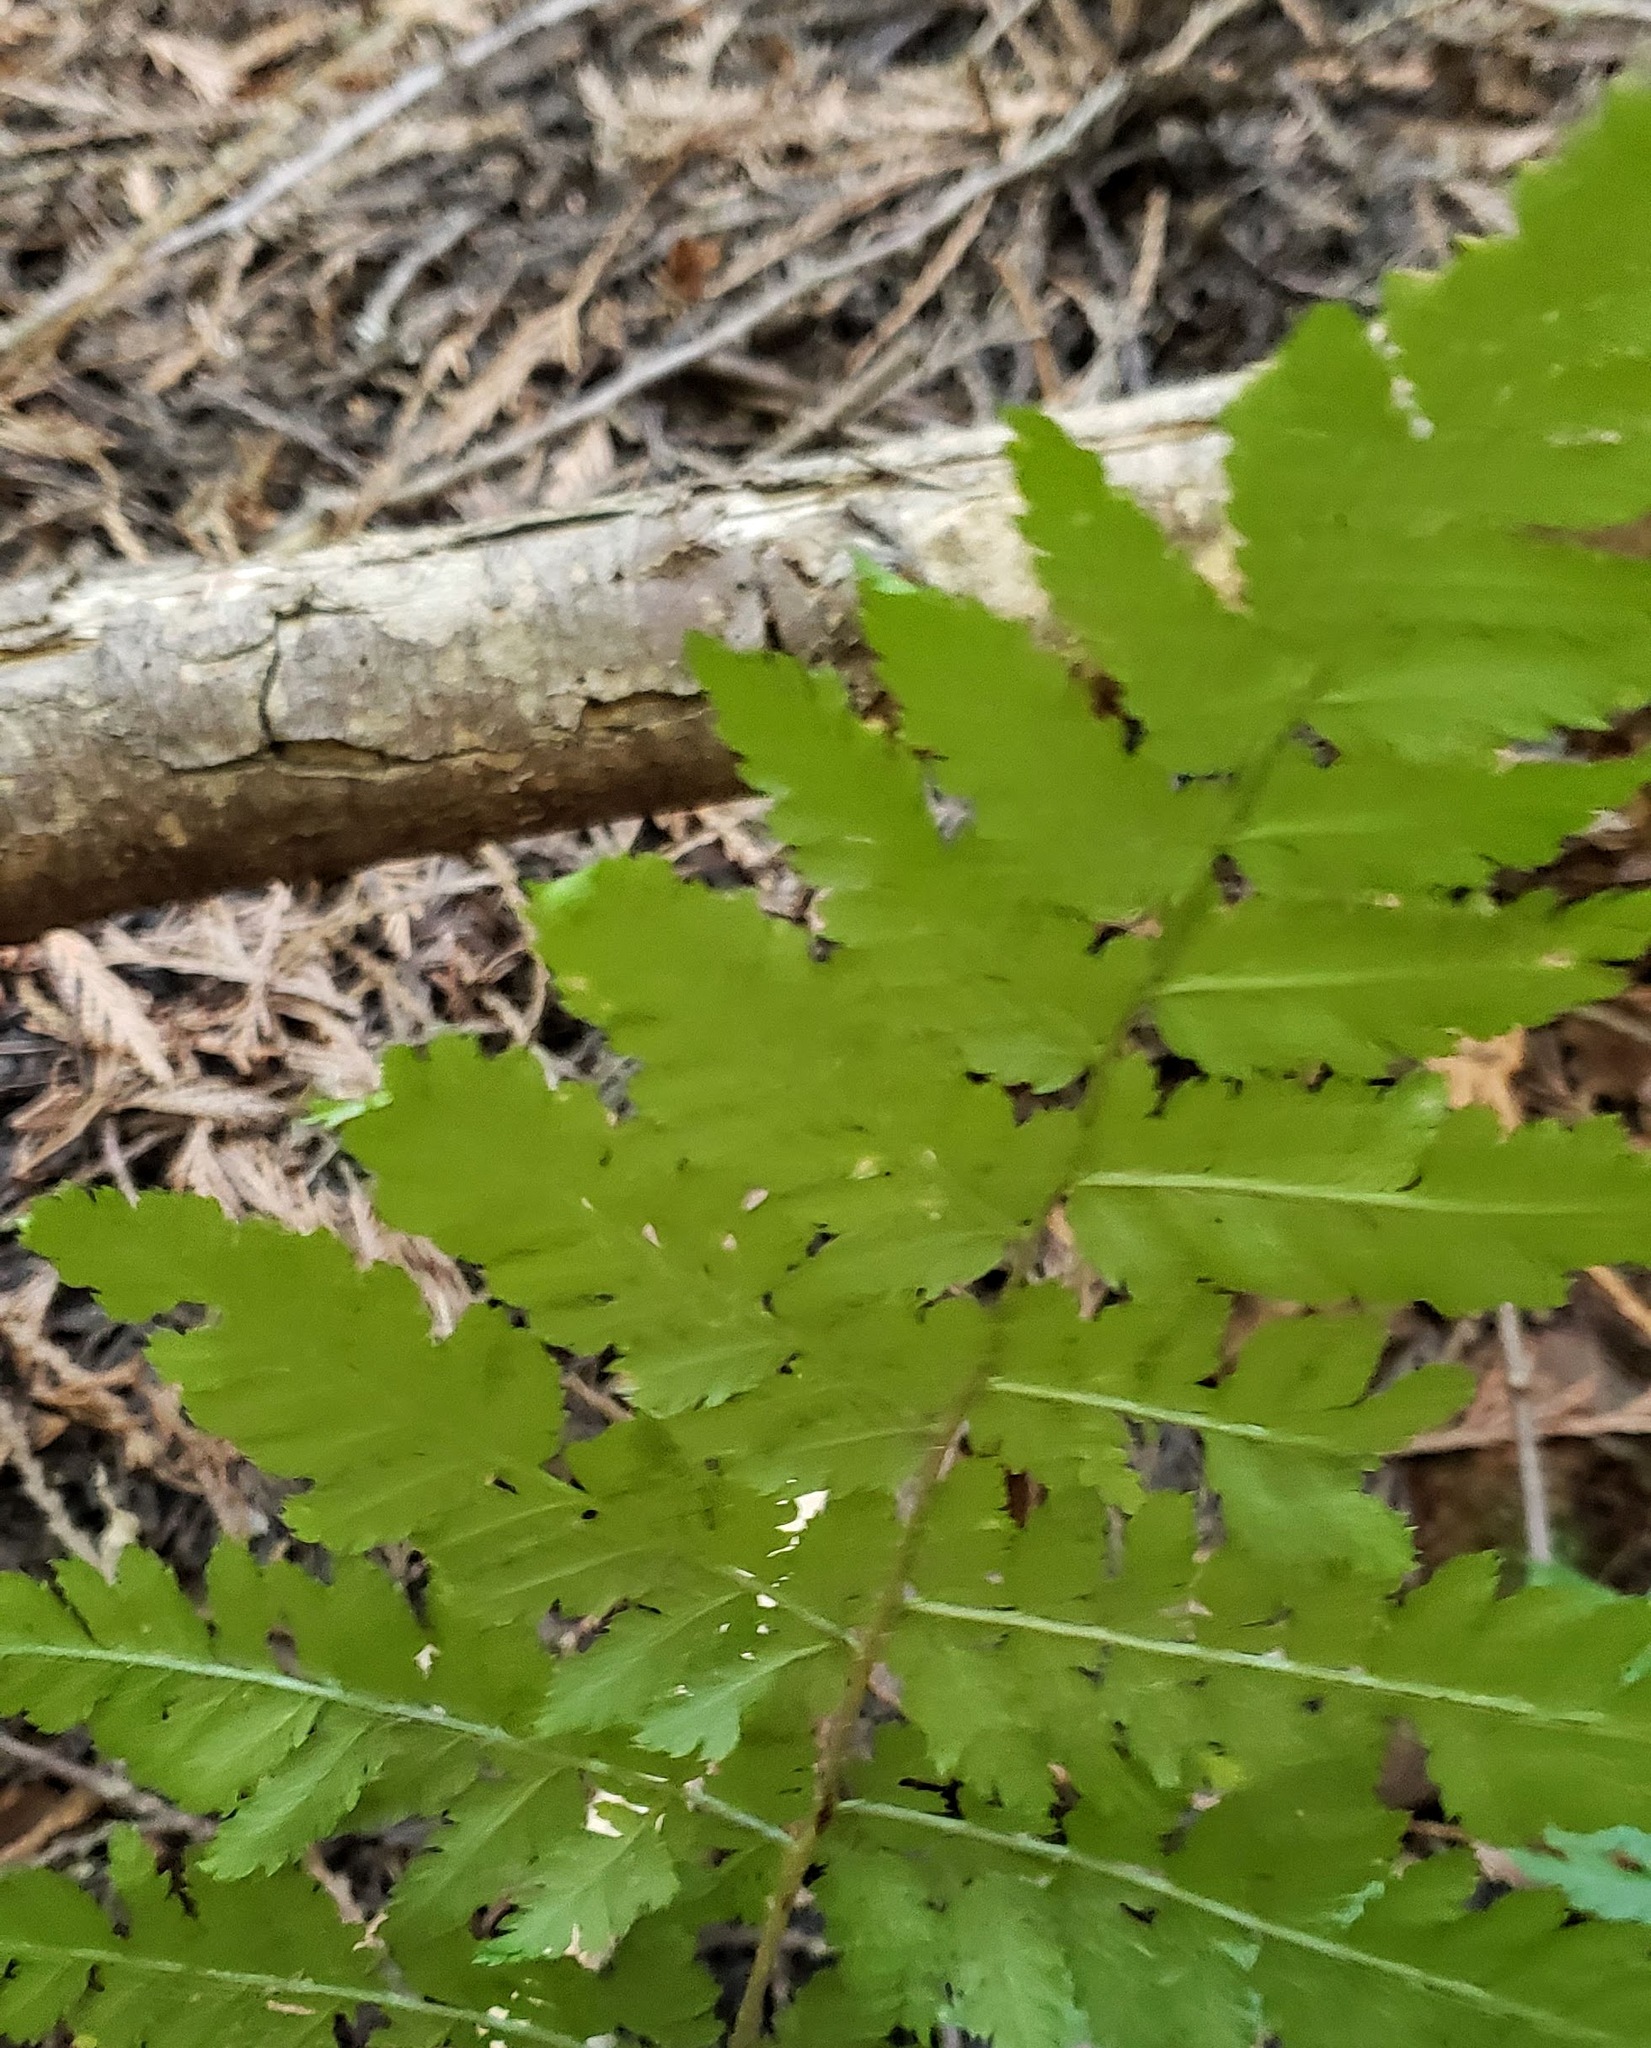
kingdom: Plantae
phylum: Tracheophyta
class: Polypodiopsida
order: Polypodiales
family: Dryopteridaceae
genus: Dryopteris
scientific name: Dryopteris expansa
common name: Northern buckler fern
